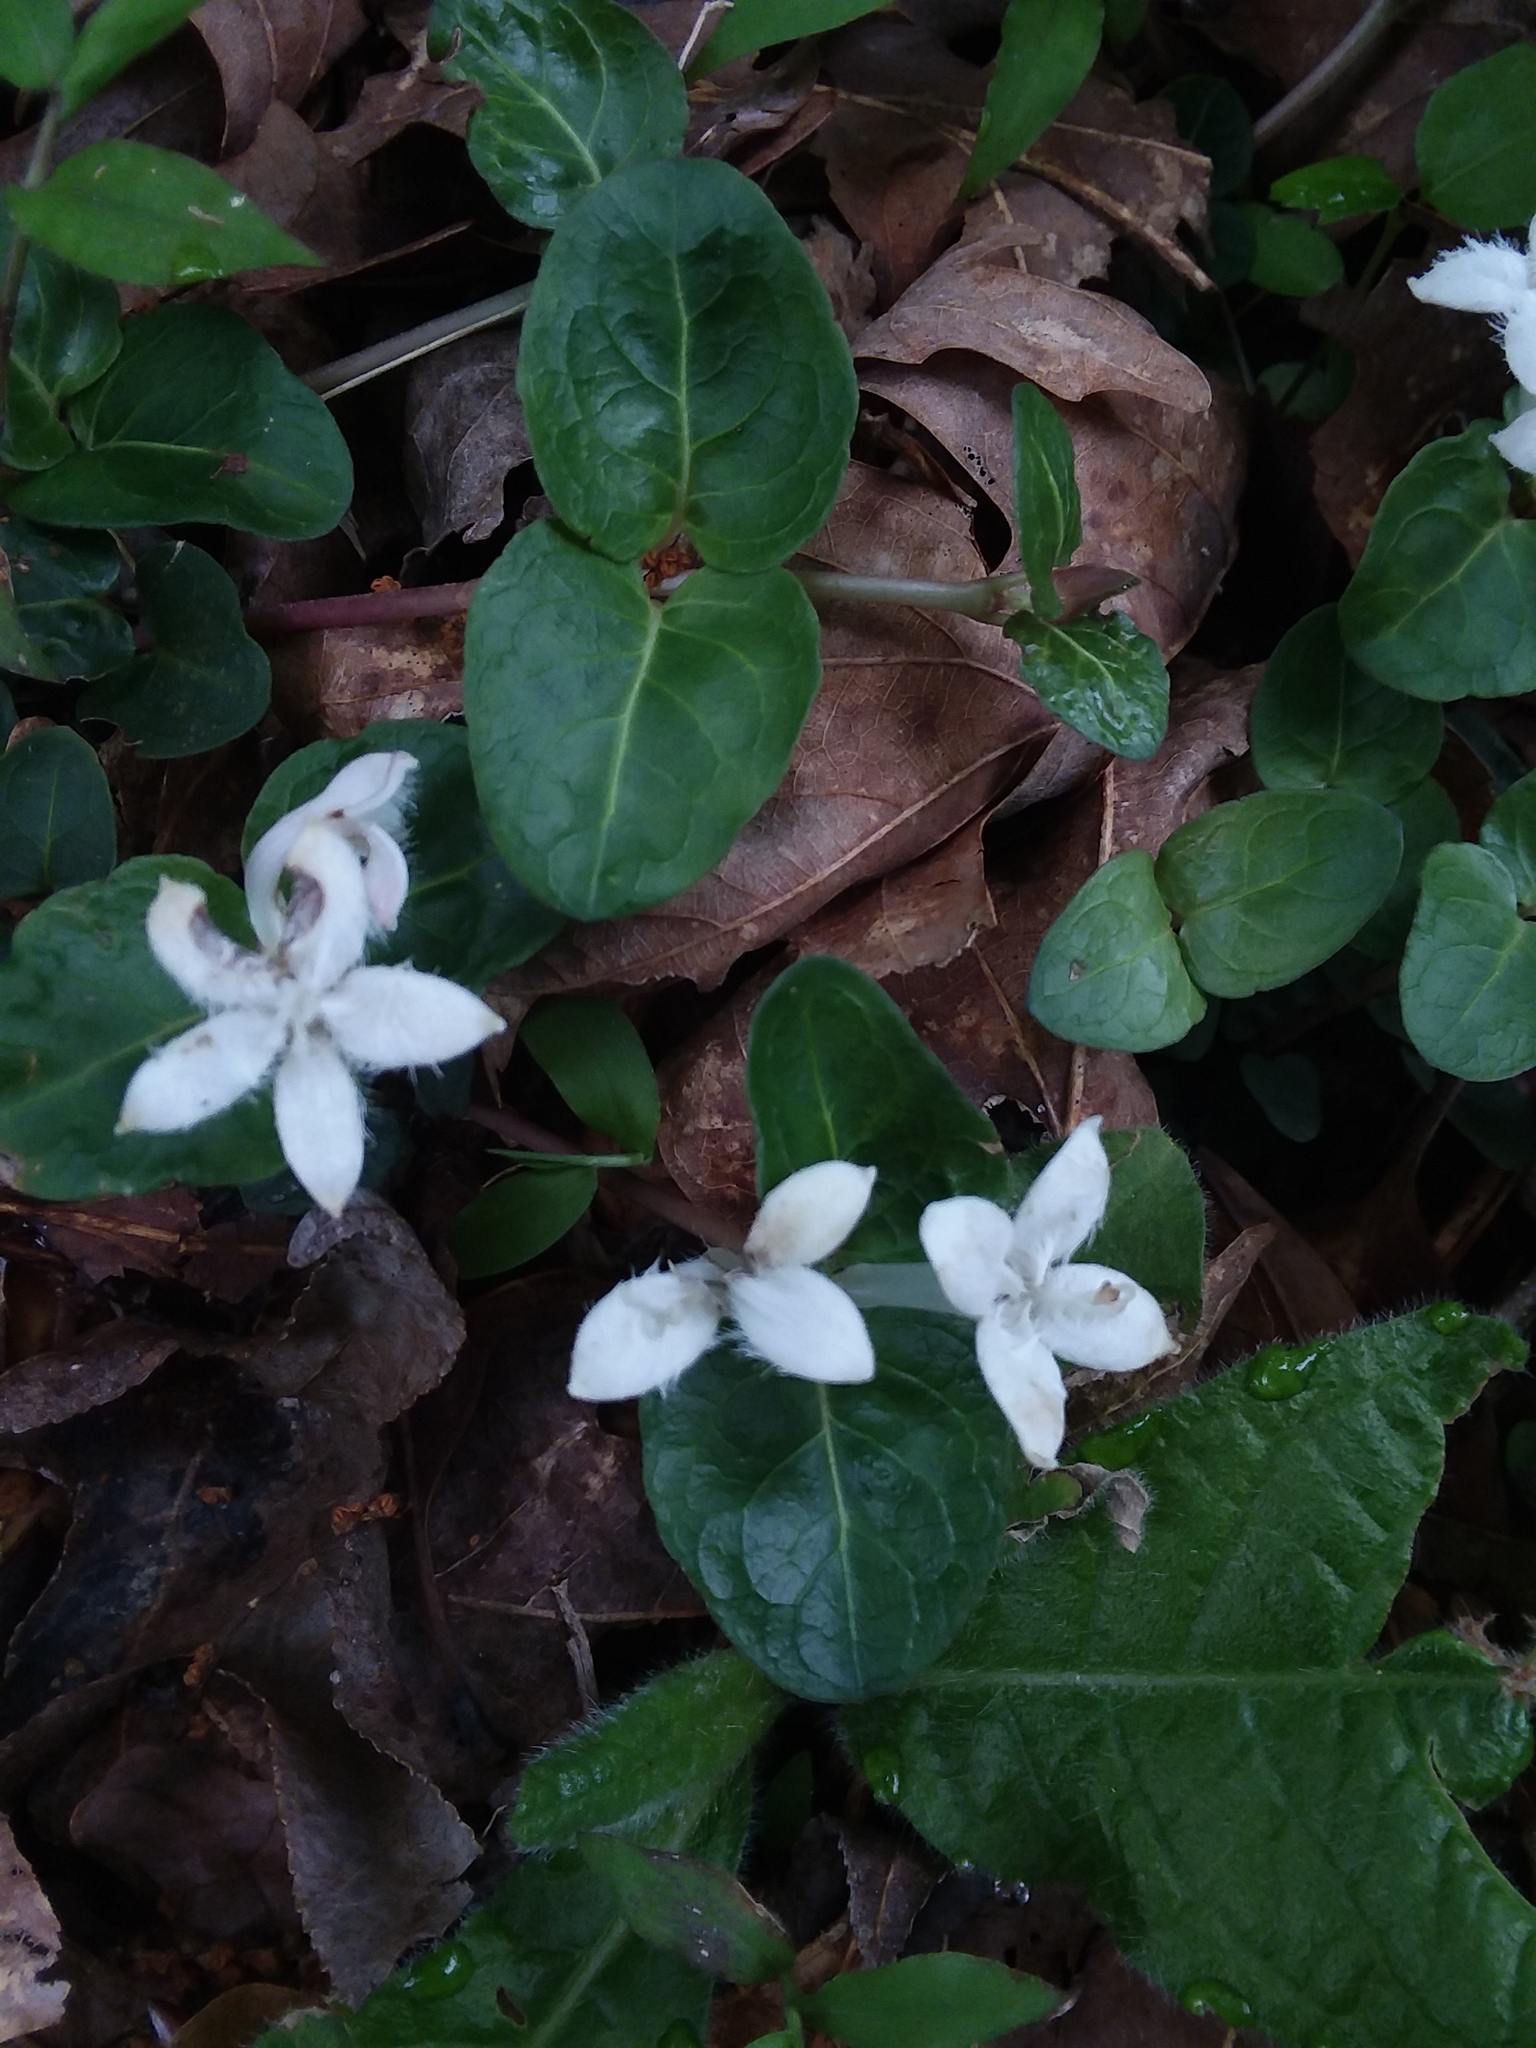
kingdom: Plantae
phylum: Tracheophyta
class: Magnoliopsida
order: Gentianales
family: Rubiaceae
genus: Mitchella
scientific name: Mitchella repens
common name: Partridge-berry
